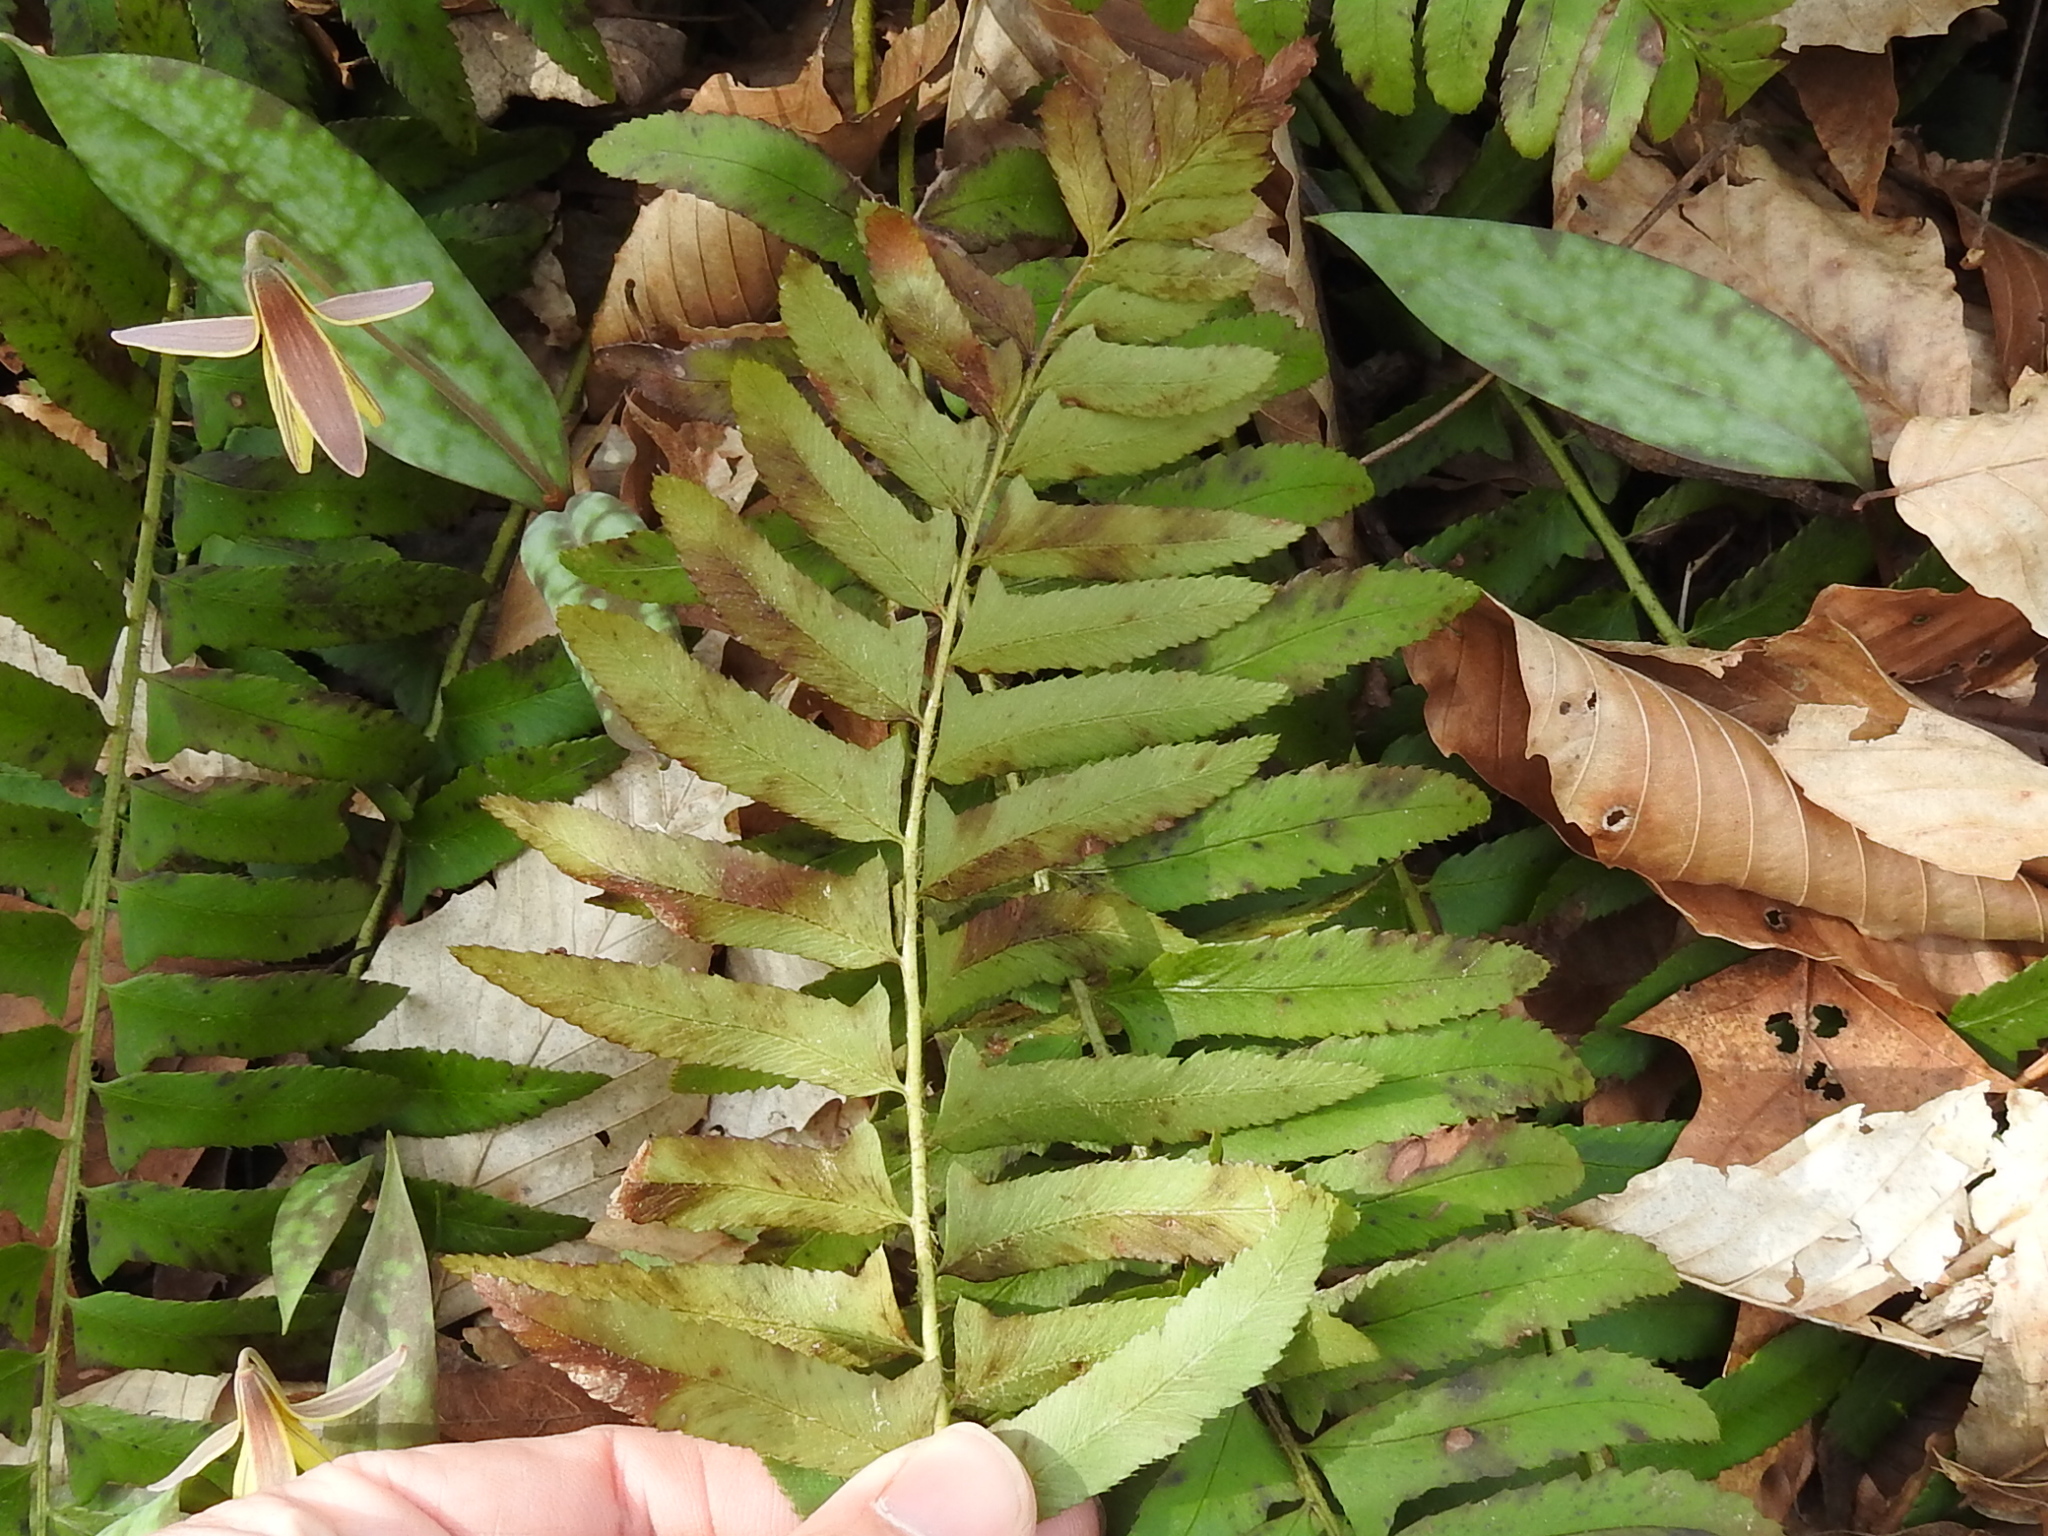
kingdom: Plantae
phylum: Tracheophyta
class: Polypodiopsida
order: Polypodiales
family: Dryopteridaceae
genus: Polystichum
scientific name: Polystichum acrostichoides
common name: Christmas fern
